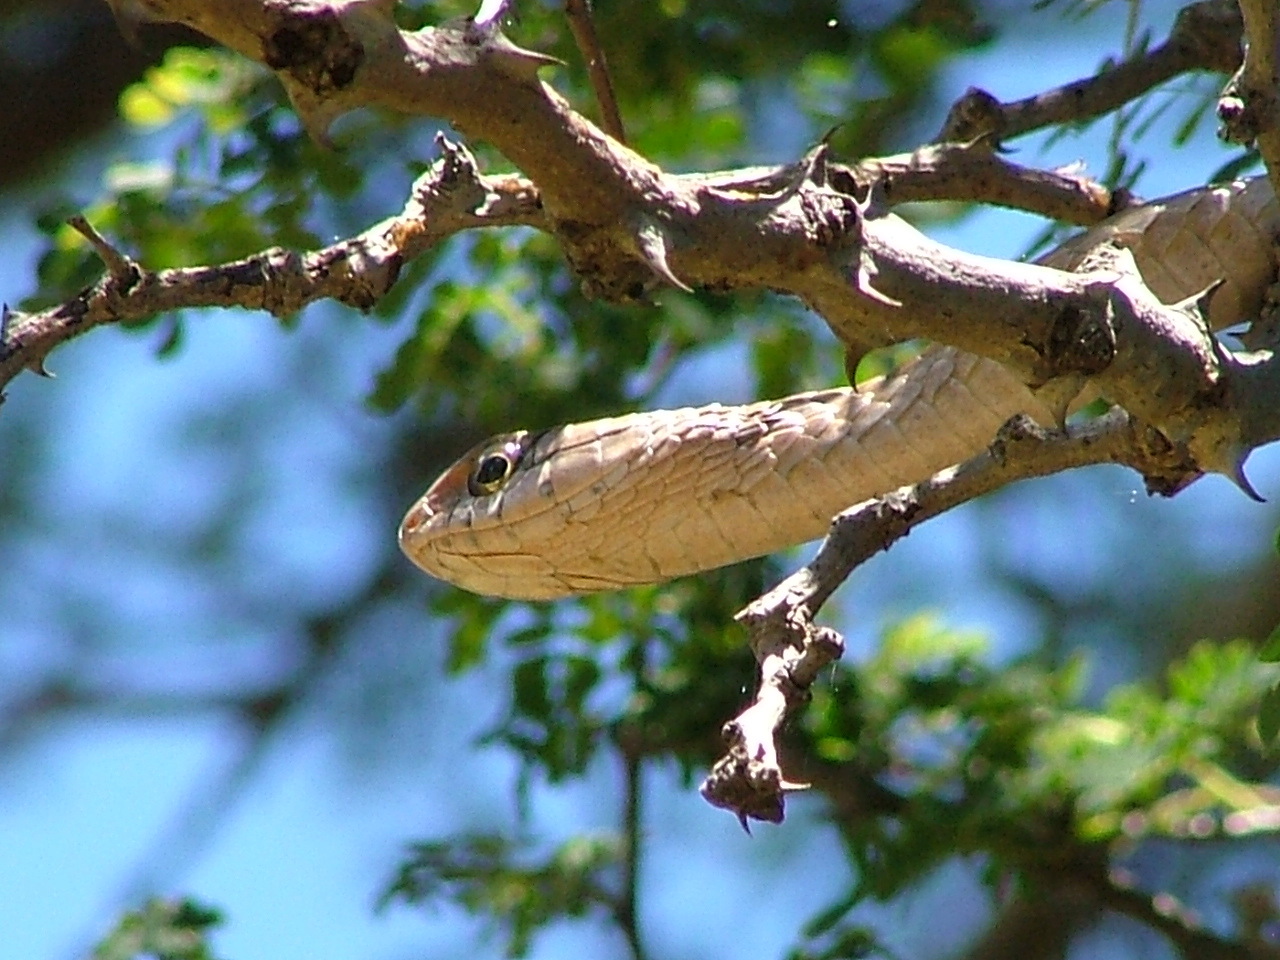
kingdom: Animalia
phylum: Chordata
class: Squamata
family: Colubridae
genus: Dispholidus
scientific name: Dispholidus typus
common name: Boomslang
